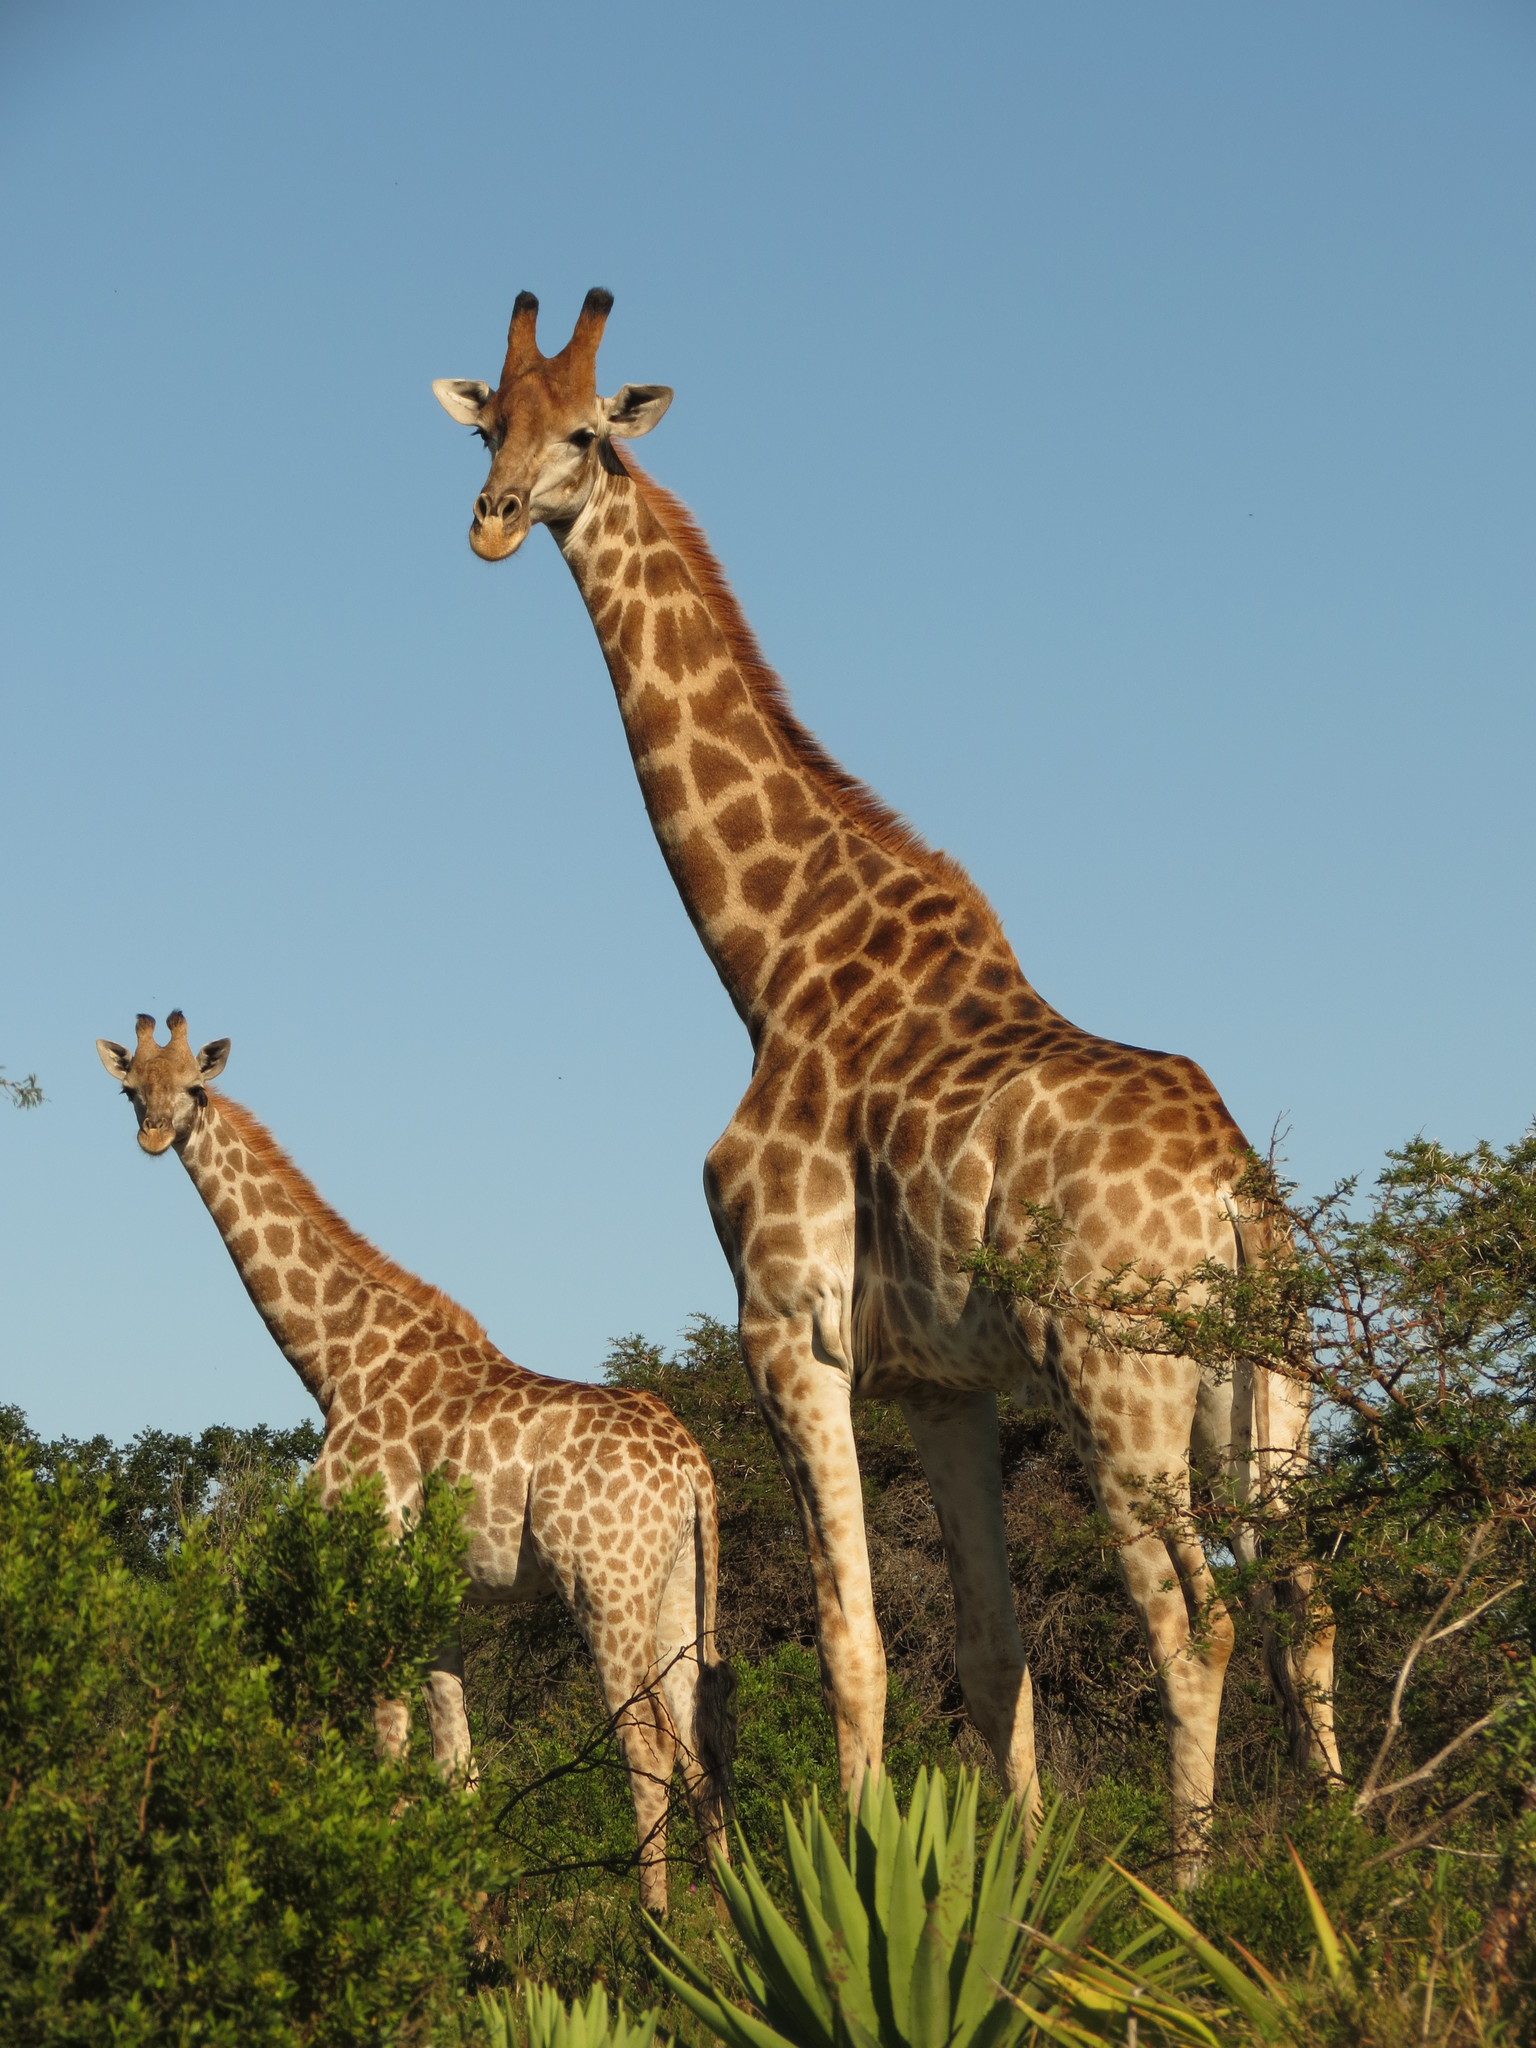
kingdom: Animalia
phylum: Chordata
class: Mammalia
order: Artiodactyla
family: Giraffidae
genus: Giraffa
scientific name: Giraffa giraffa
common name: Southern giraffe
